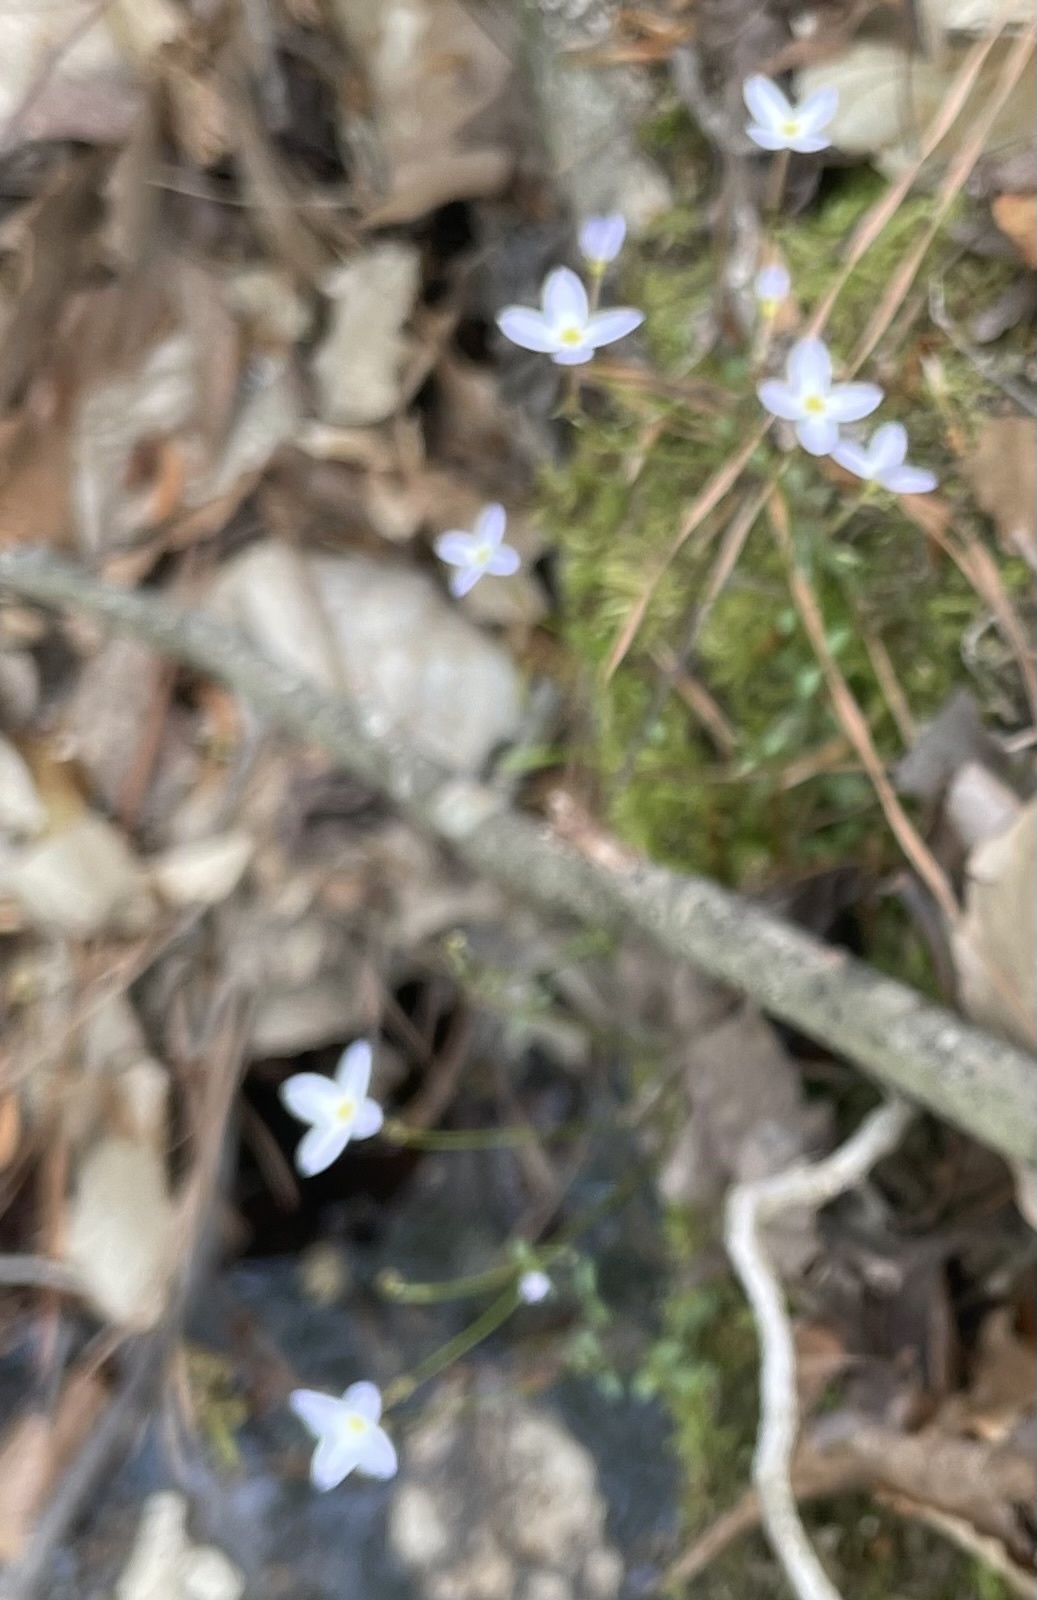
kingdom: Plantae
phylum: Tracheophyta
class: Magnoliopsida
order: Gentianales
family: Rubiaceae
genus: Houstonia
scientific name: Houstonia caerulea
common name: Bluets
